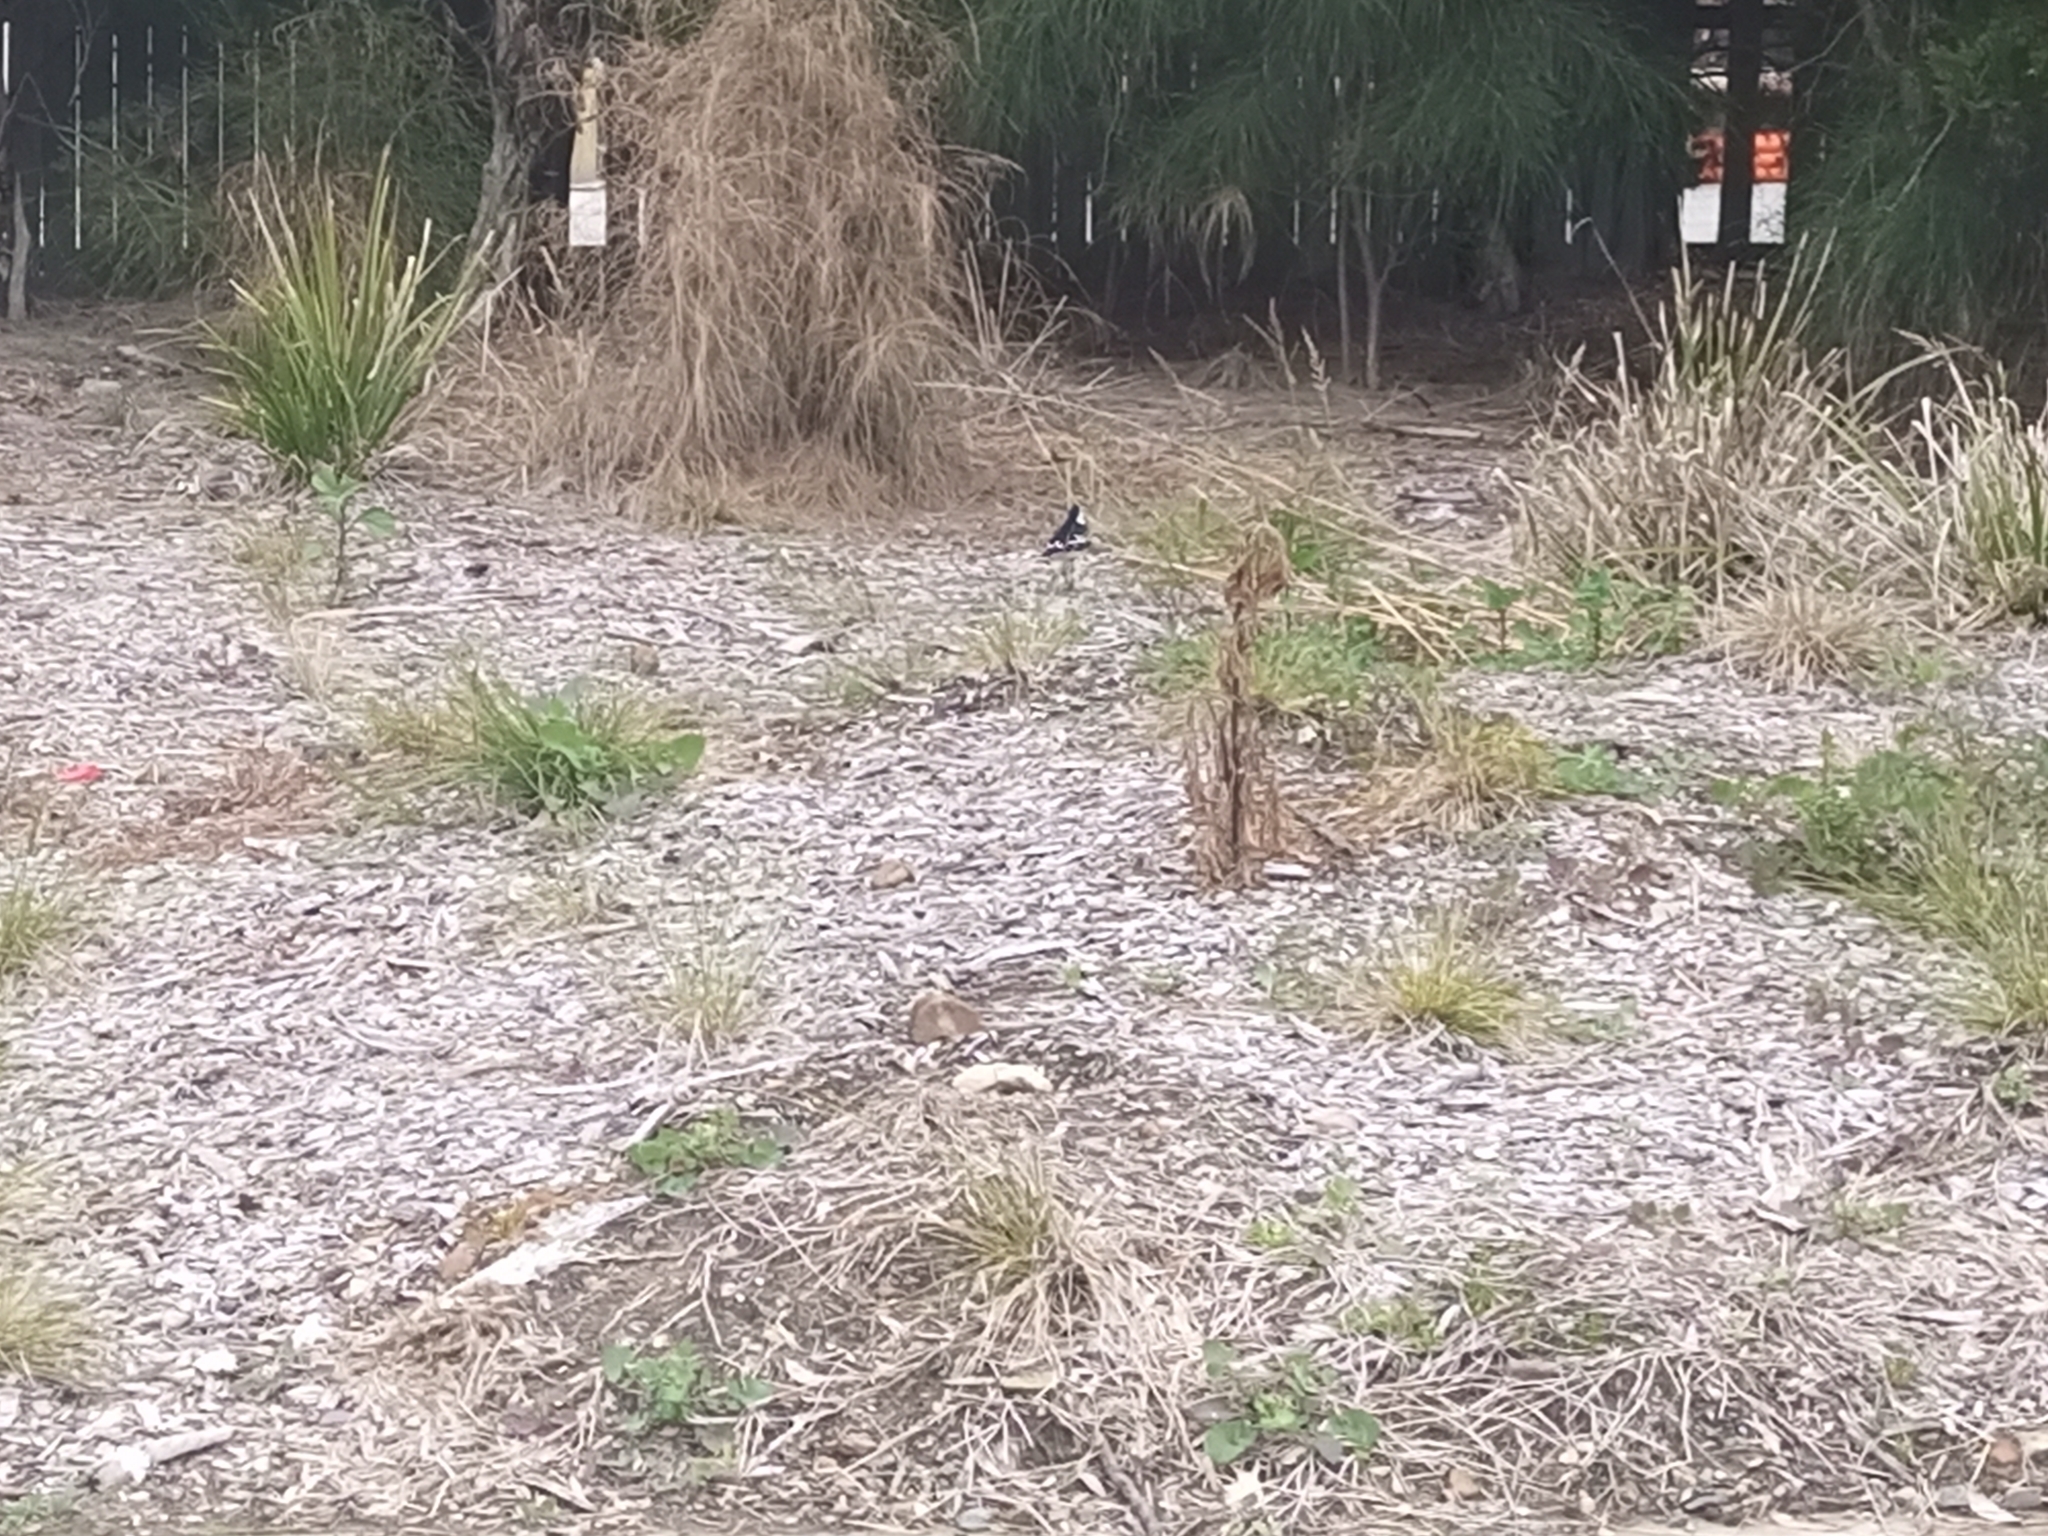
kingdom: Animalia
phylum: Chordata
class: Aves
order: Passeriformes
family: Monarchidae
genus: Grallina
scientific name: Grallina cyanoleuca
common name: Magpie-lark
